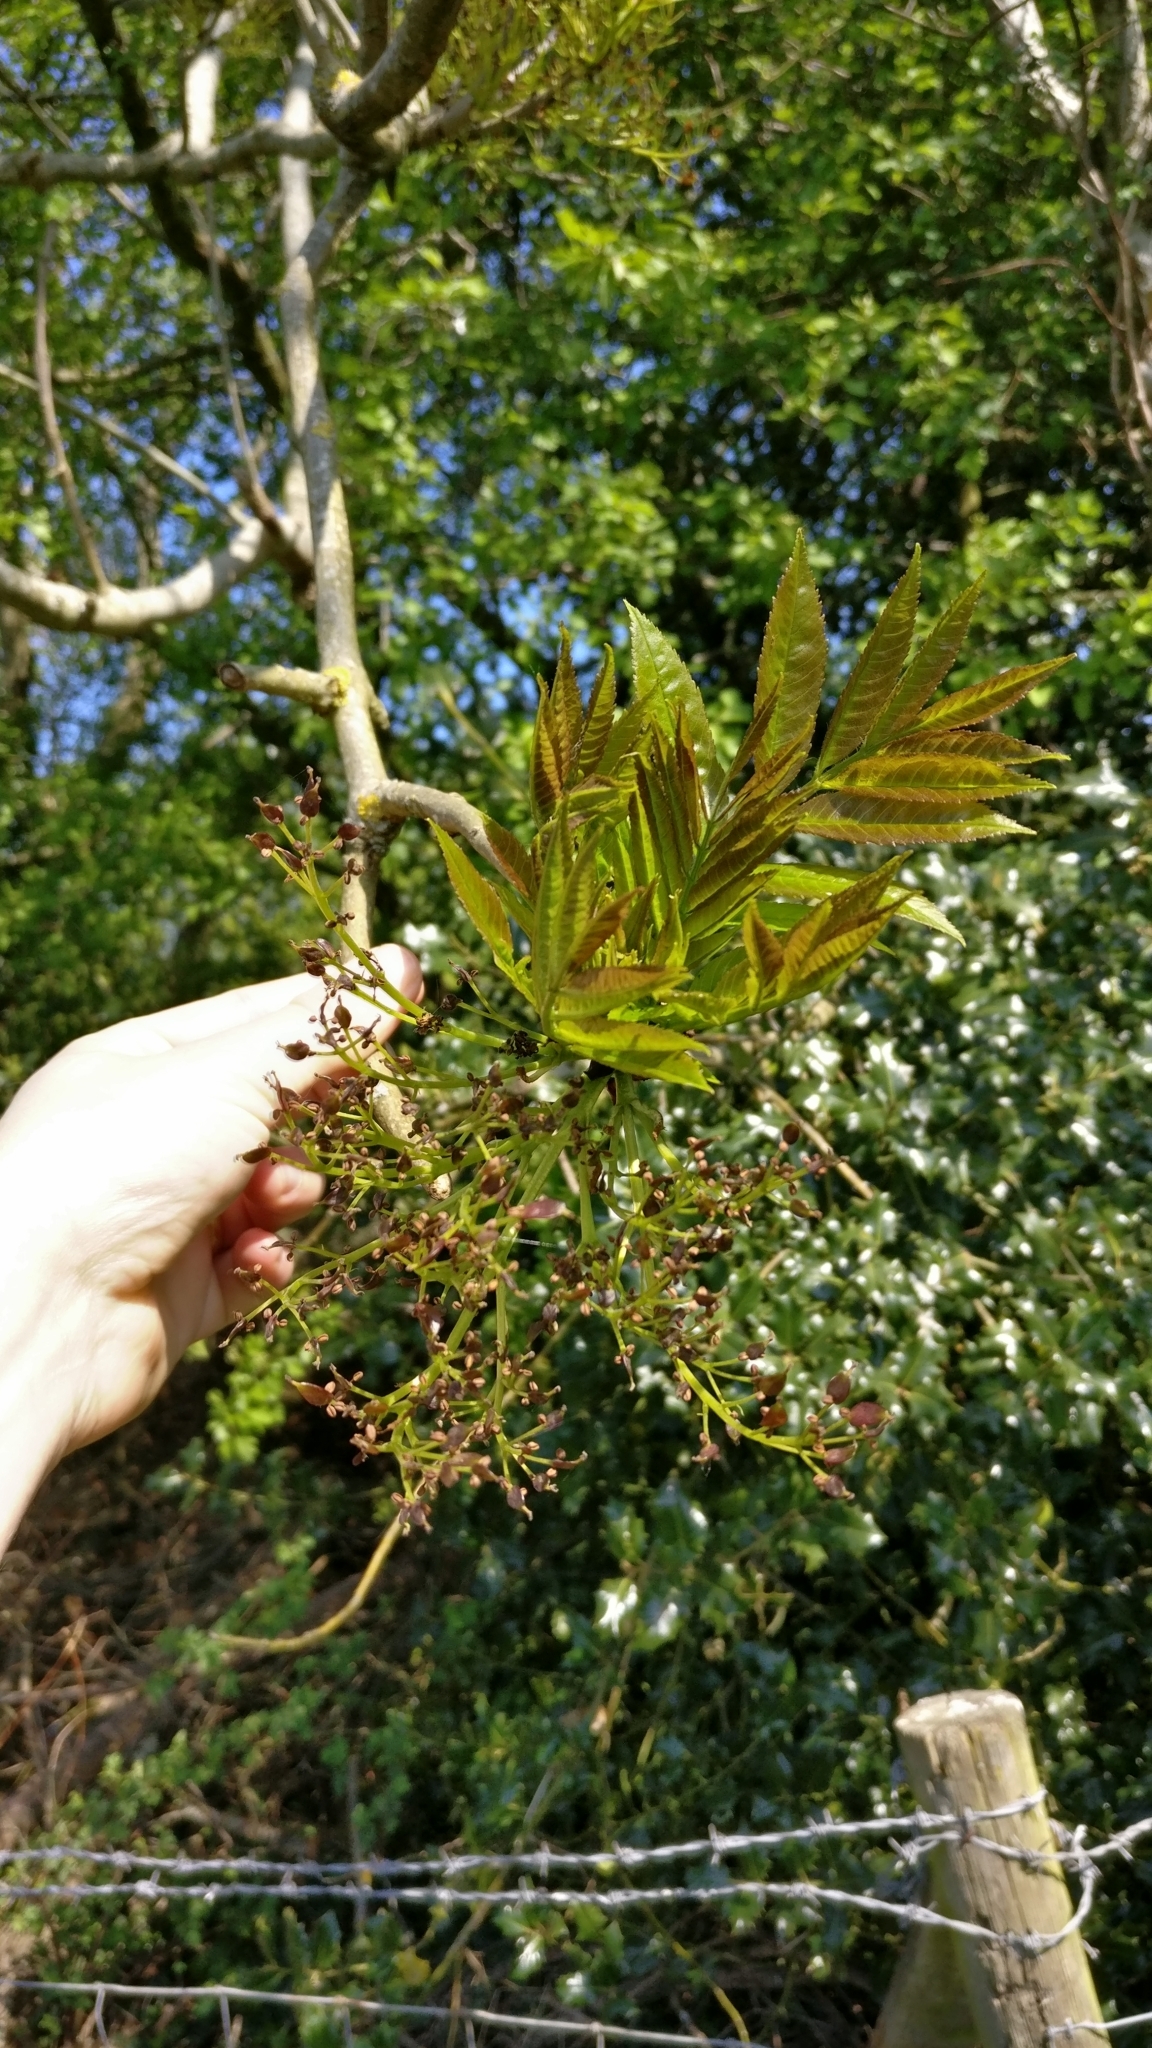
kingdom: Plantae
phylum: Tracheophyta
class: Magnoliopsida
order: Lamiales
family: Oleaceae
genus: Fraxinus
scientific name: Fraxinus excelsior
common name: European ash
